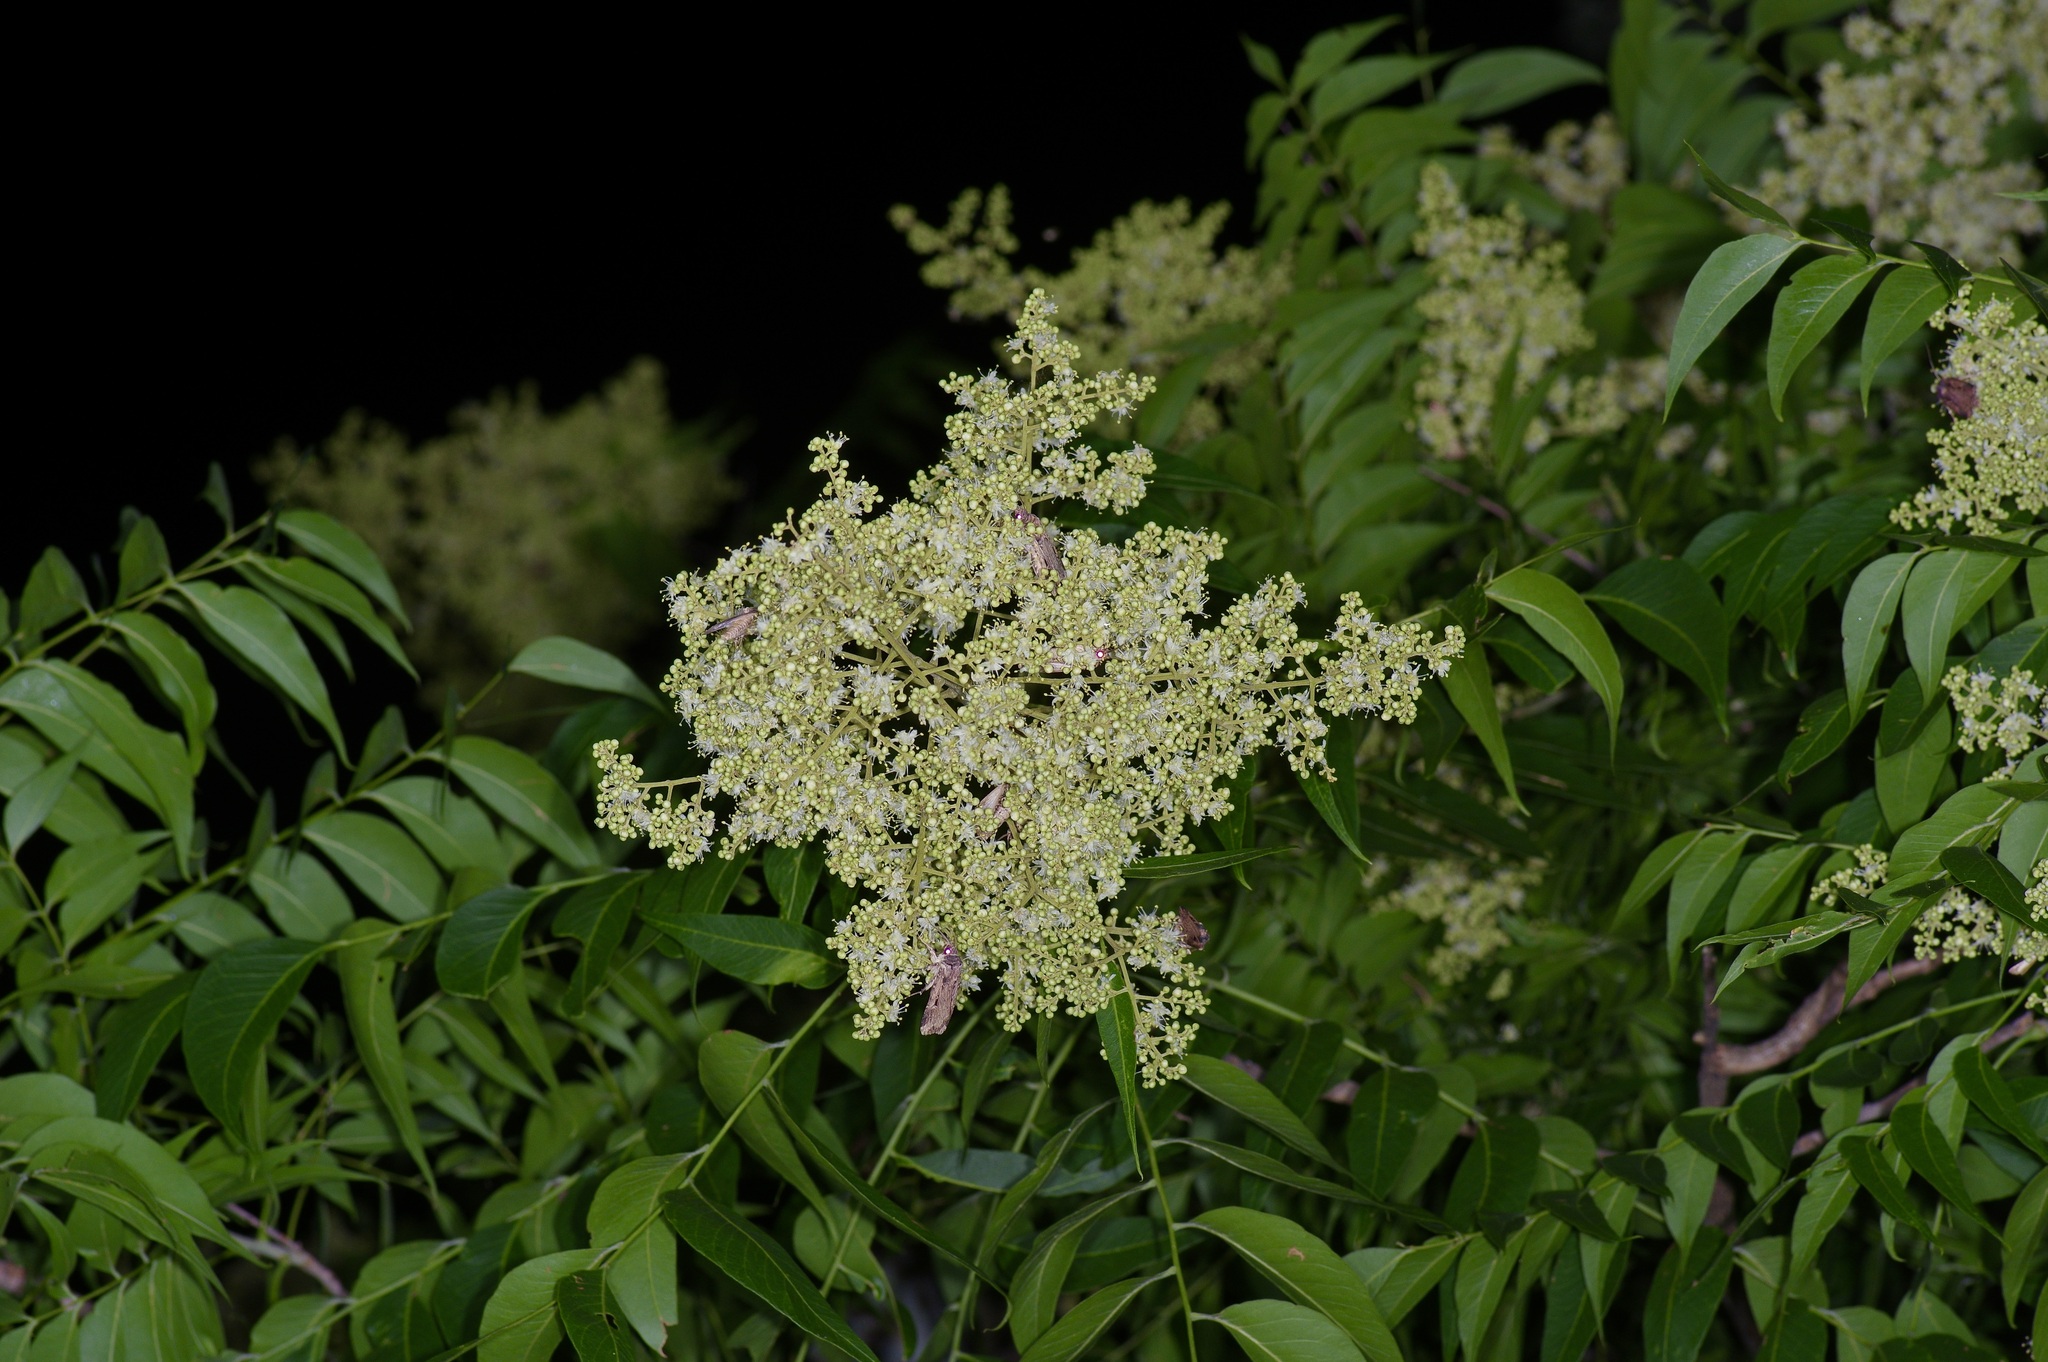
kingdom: Plantae
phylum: Tracheophyta
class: Magnoliopsida
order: Sapindales
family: Sapindaceae
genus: Sapindus
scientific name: Sapindus drummondii
